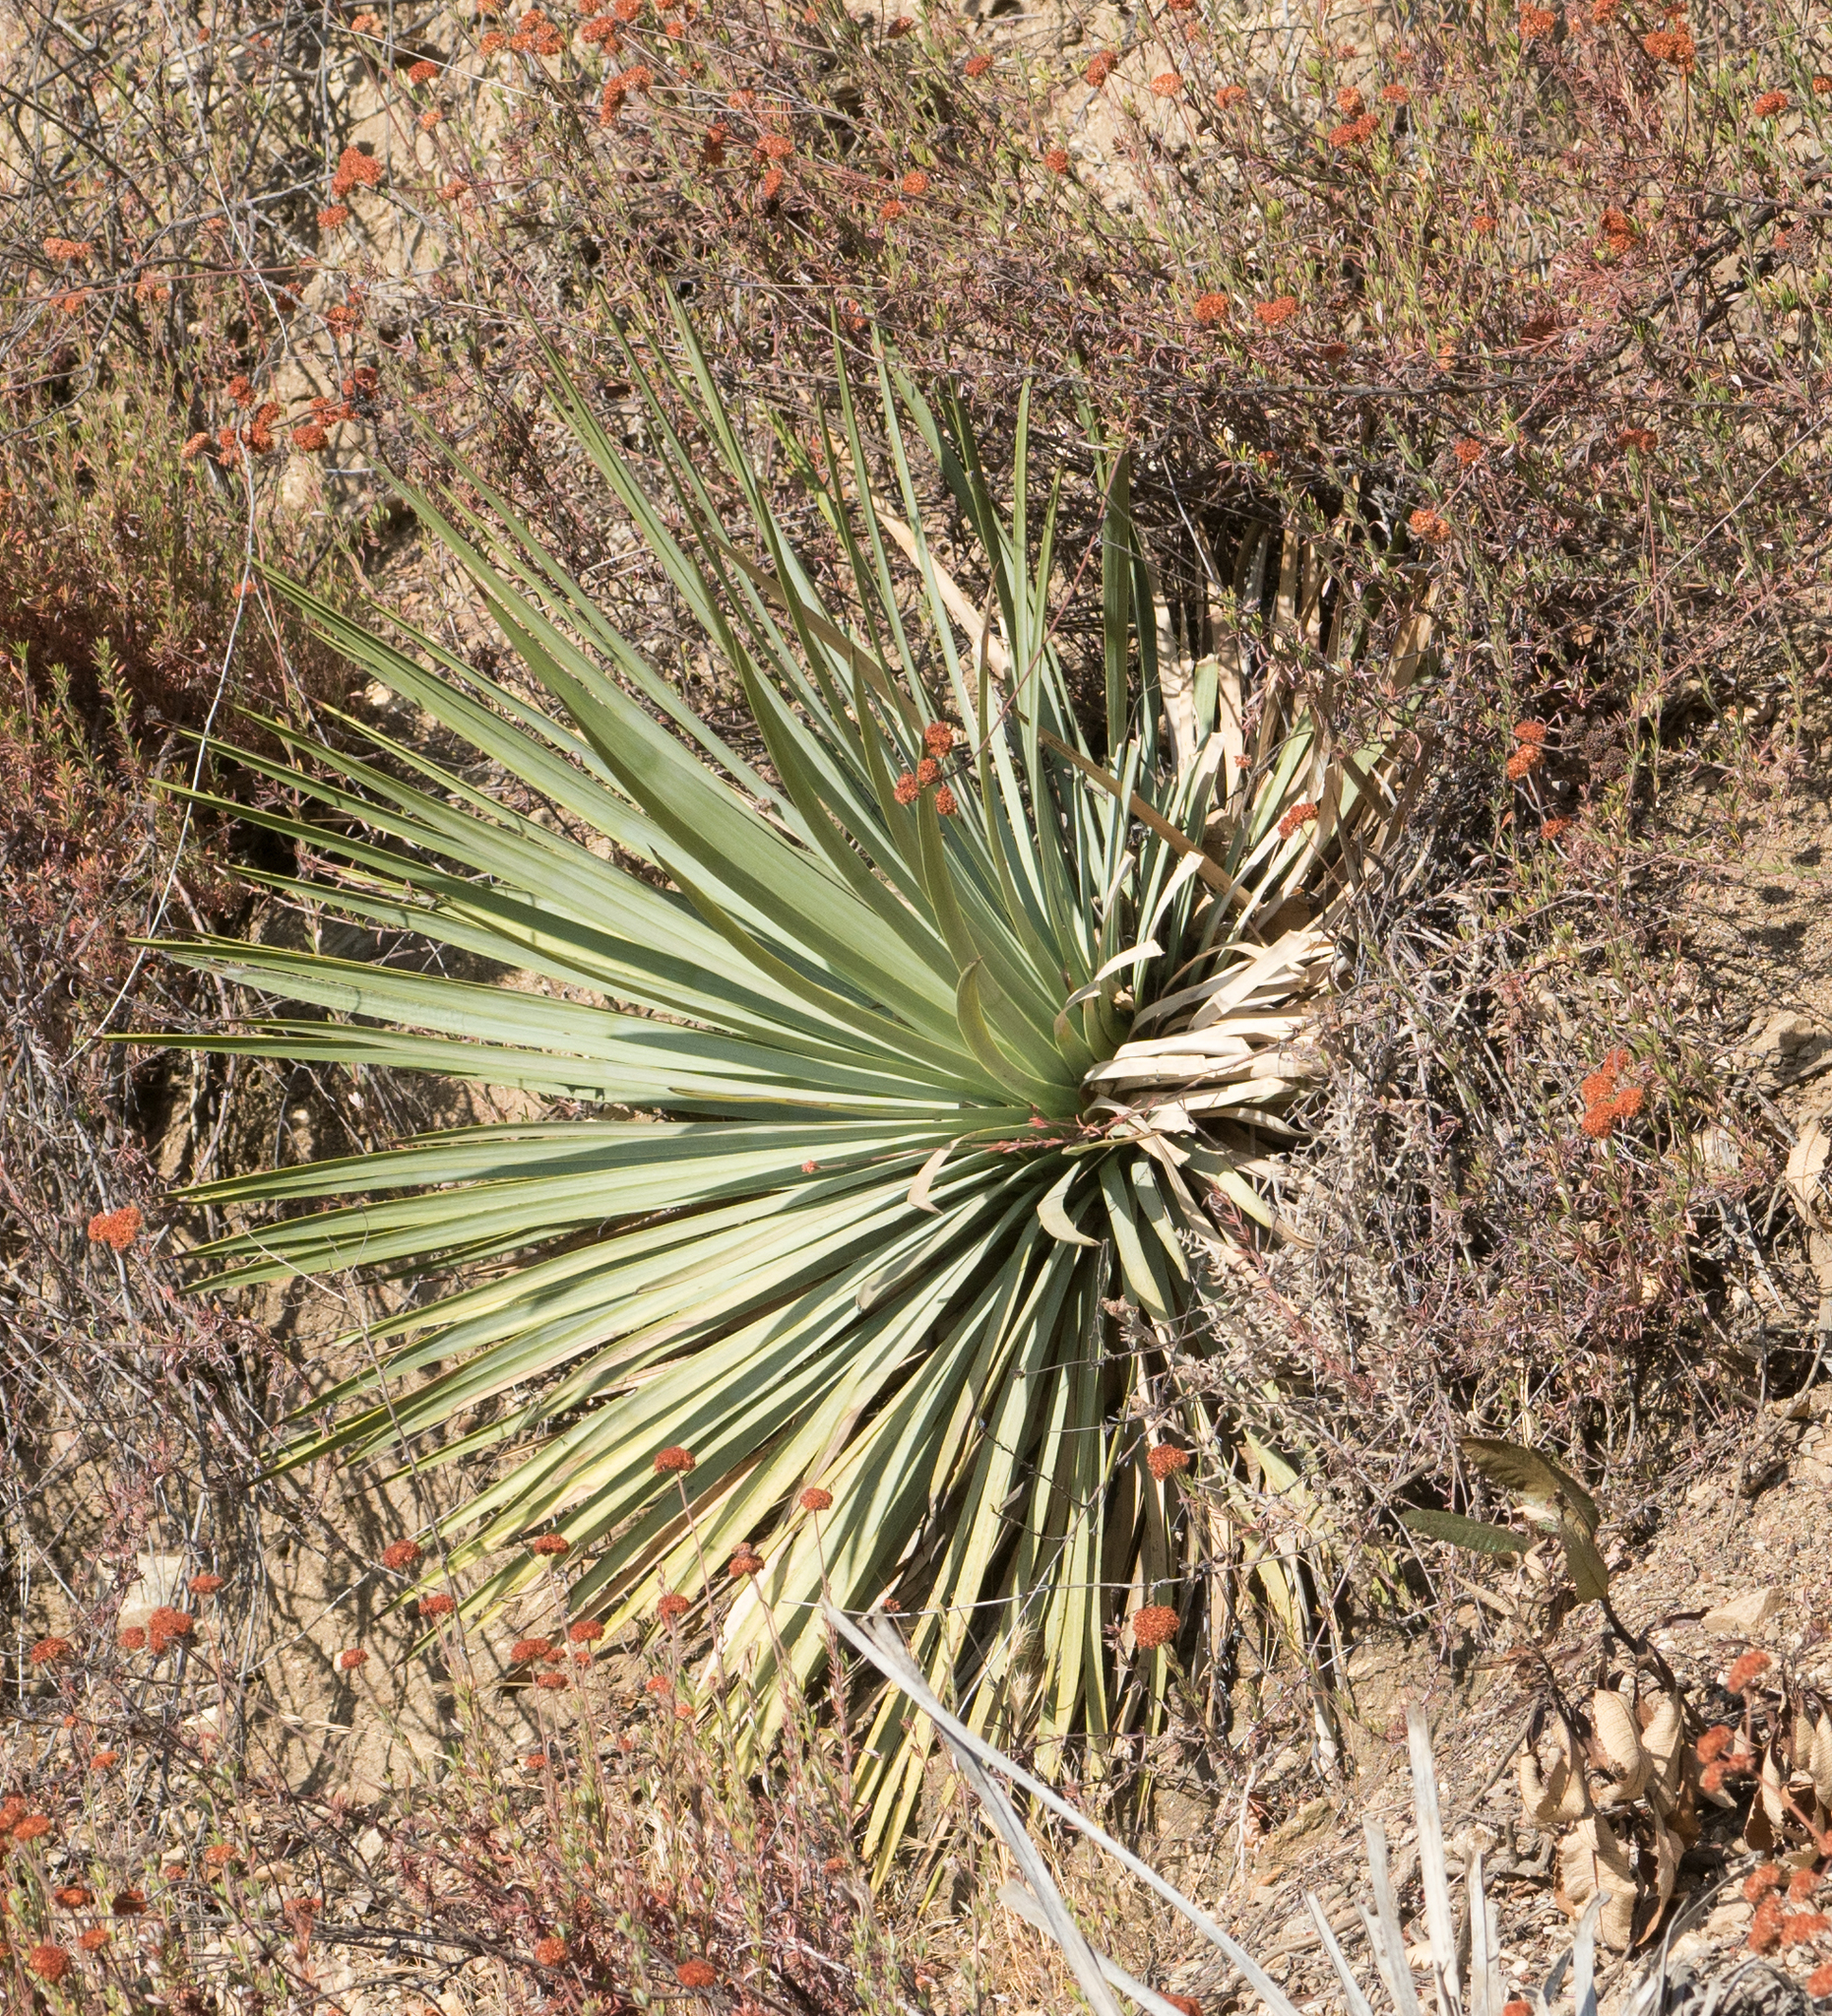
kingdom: Plantae
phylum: Tracheophyta
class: Liliopsida
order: Asparagales
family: Asparagaceae
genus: Hesperoyucca
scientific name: Hesperoyucca whipplei
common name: Our lord's-candle
